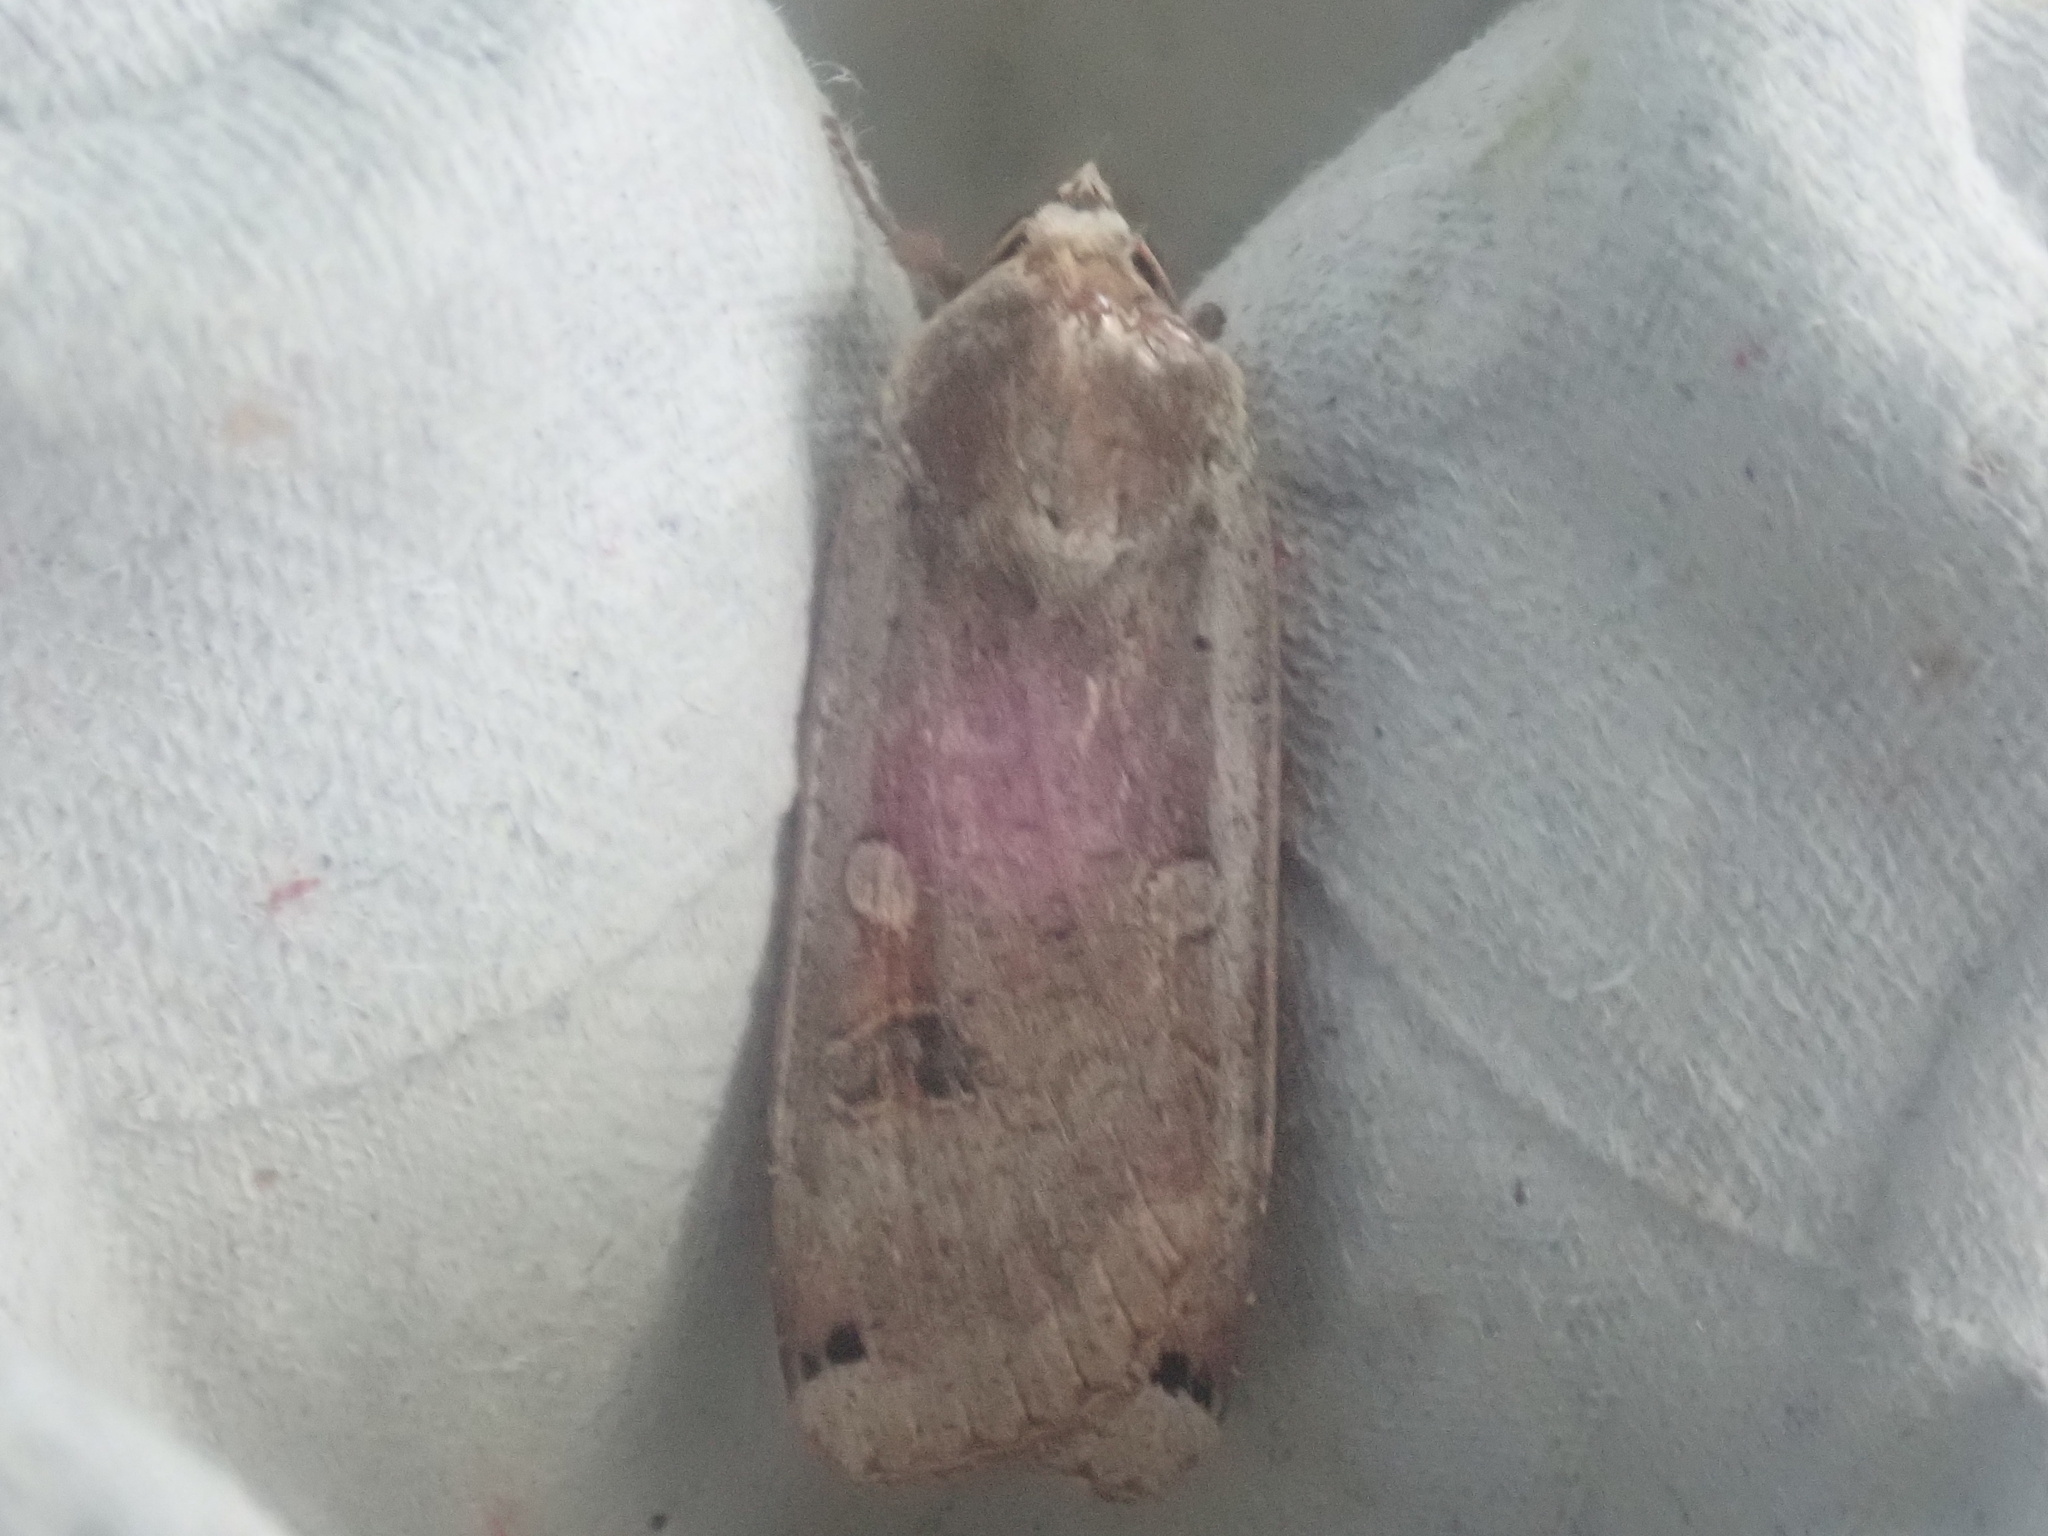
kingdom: Animalia
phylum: Arthropoda
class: Insecta
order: Lepidoptera
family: Noctuidae
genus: Noctua
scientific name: Noctua pronuba
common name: Large yellow underwing
